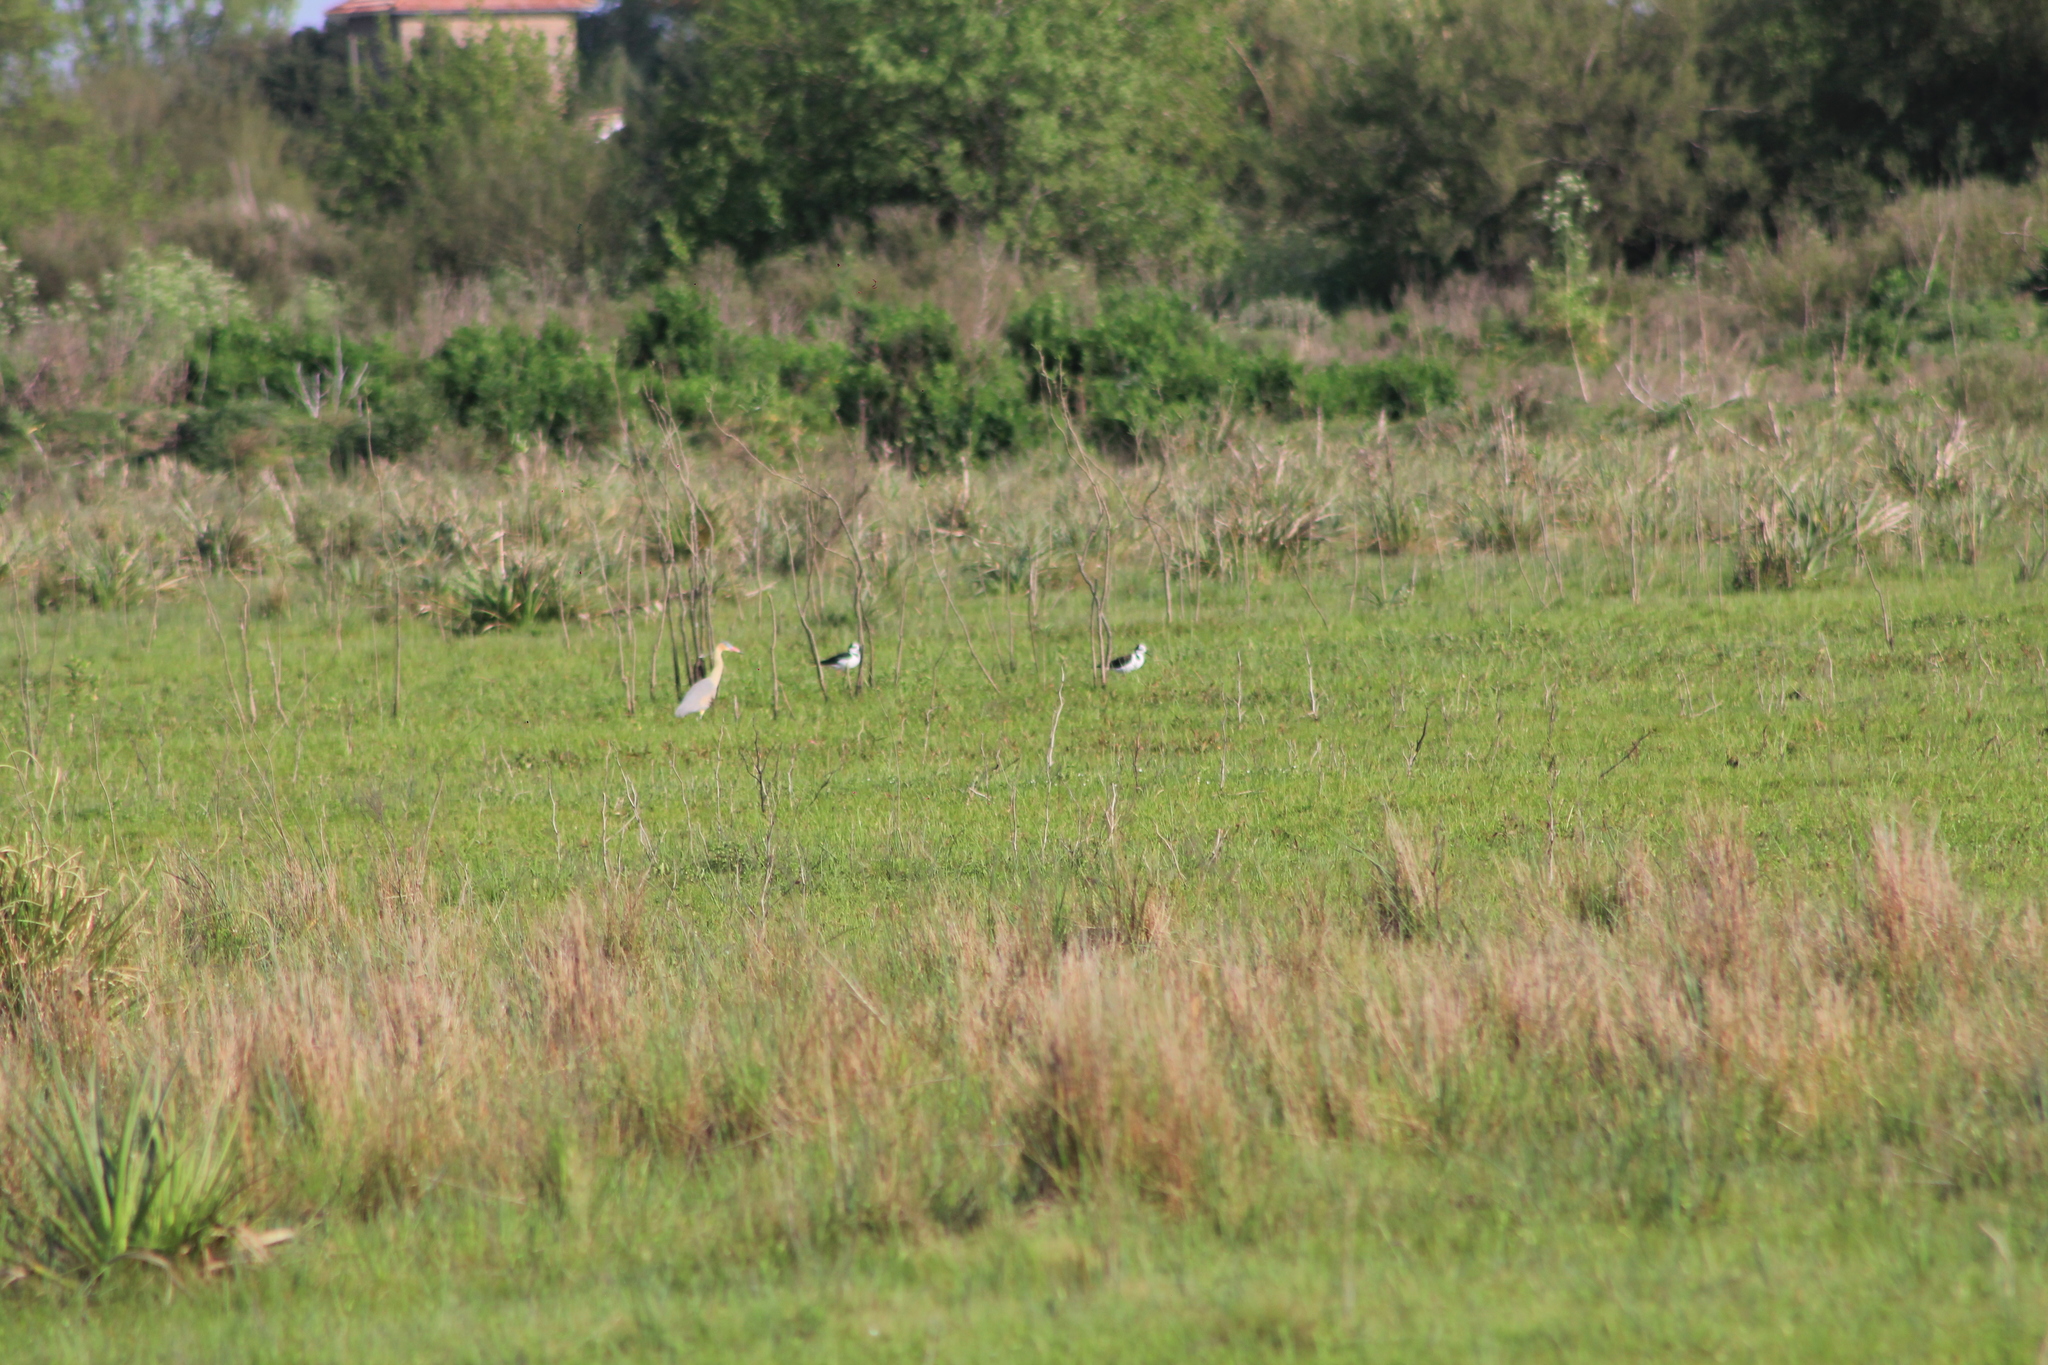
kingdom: Animalia
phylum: Chordata
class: Aves
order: Pelecaniformes
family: Ardeidae
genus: Syrigma
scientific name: Syrigma sibilatrix
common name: Whistling heron
